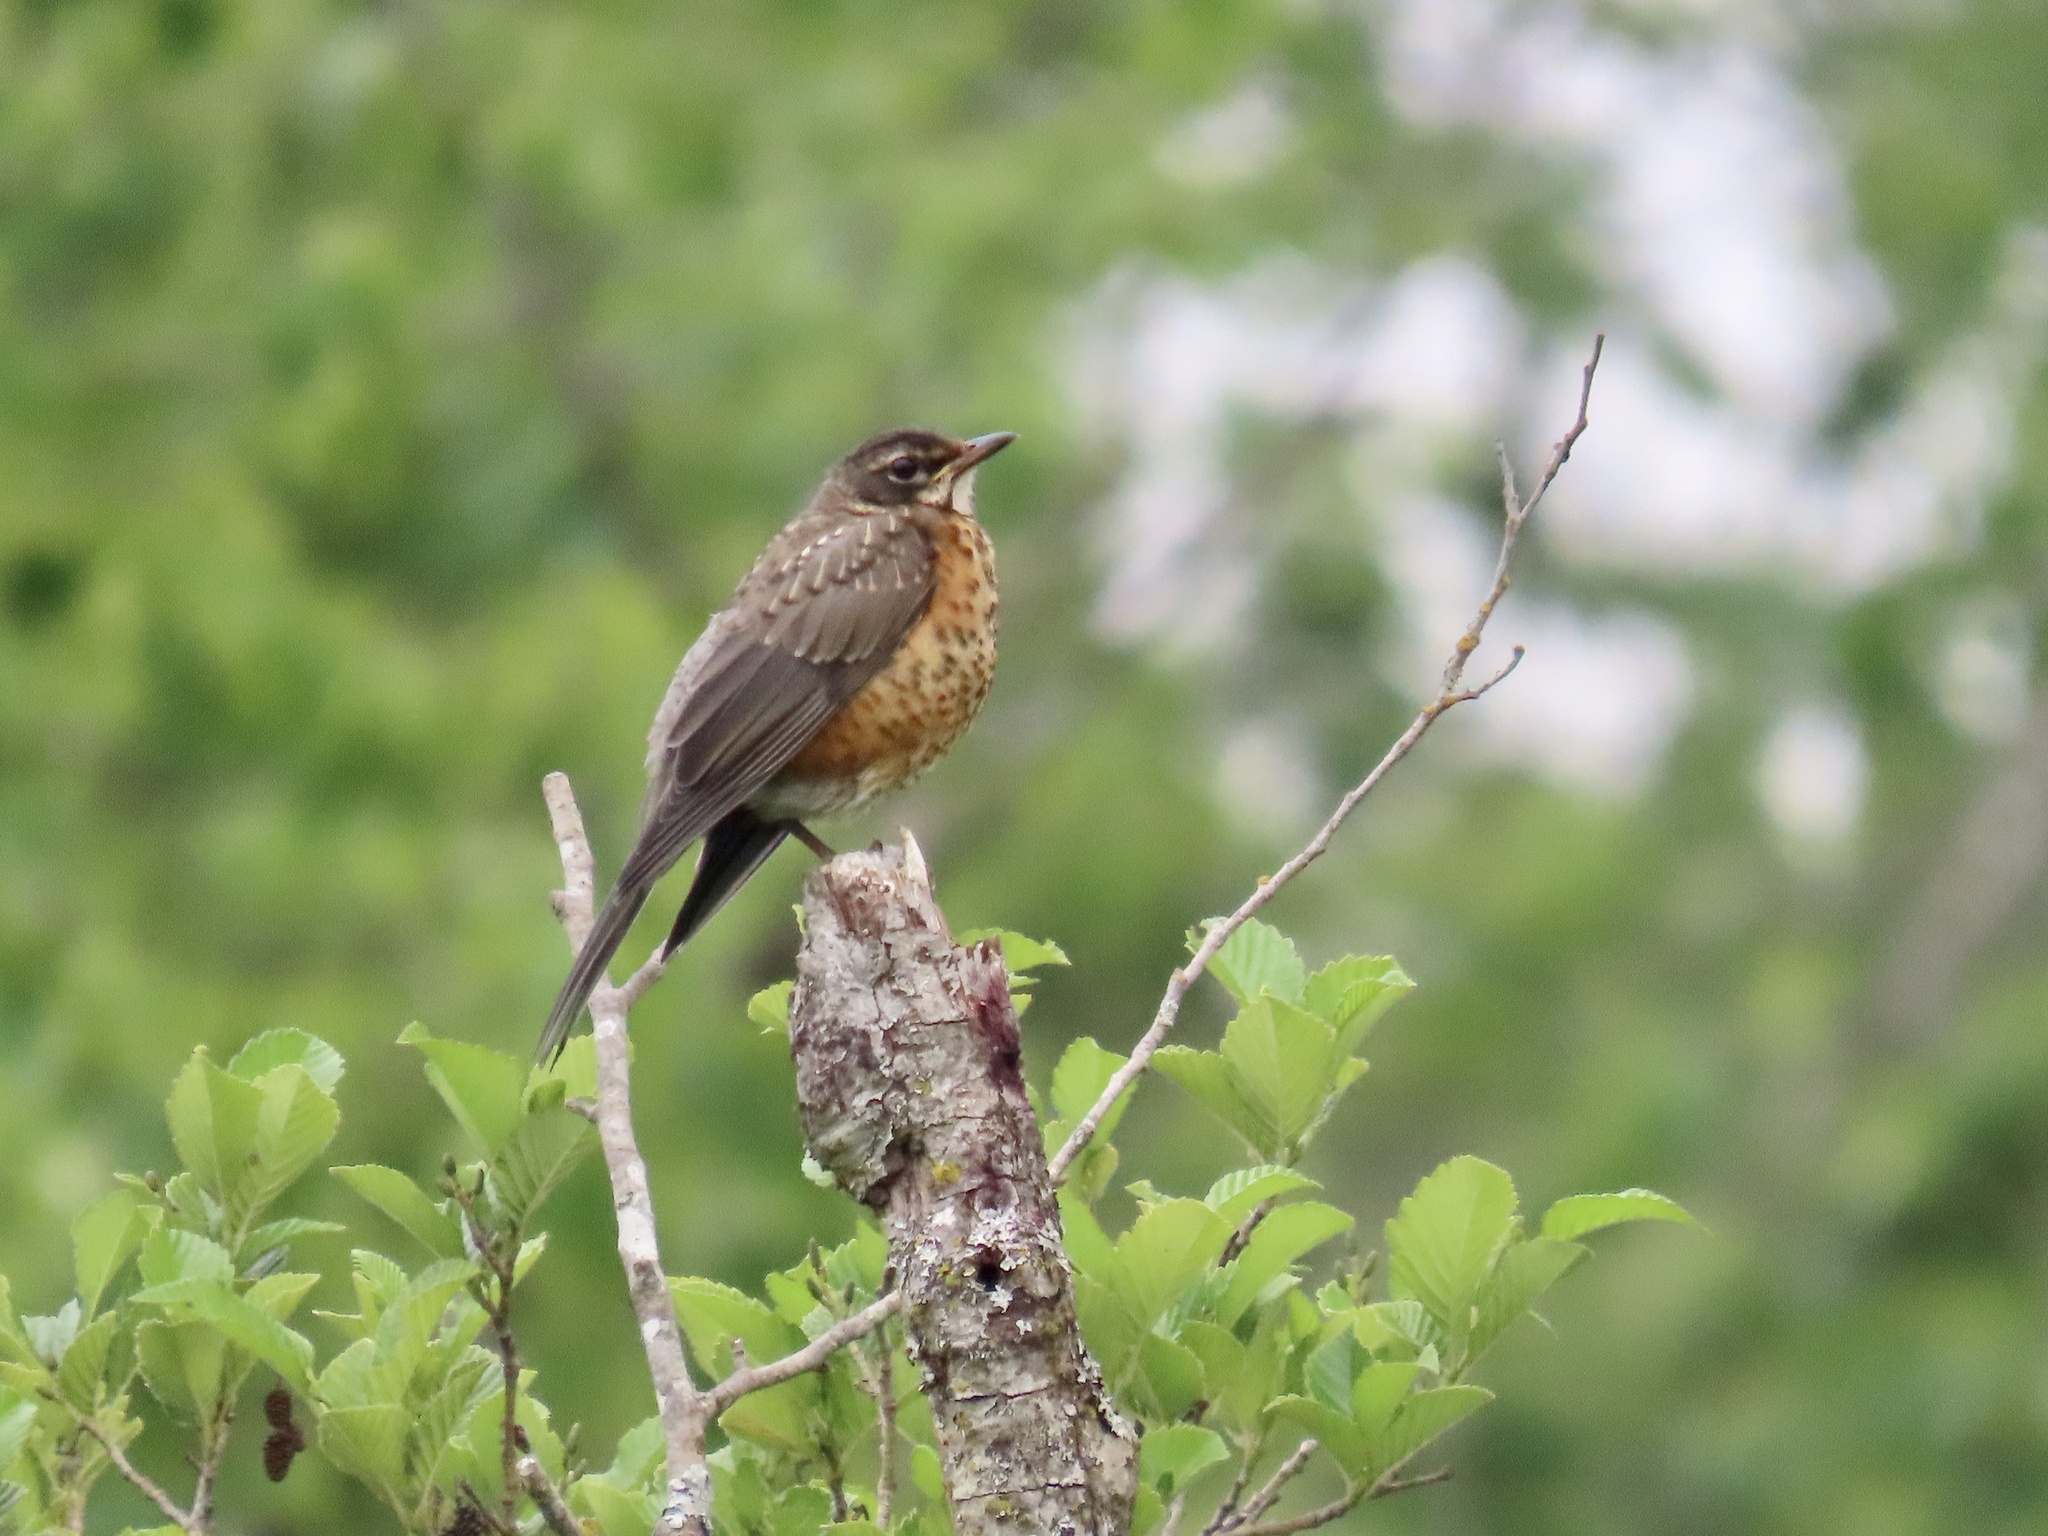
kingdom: Animalia
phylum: Chordata
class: Aves
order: Passeriformes
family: Turdidae
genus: Turdus
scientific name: Turdus migratorius
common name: American robin
